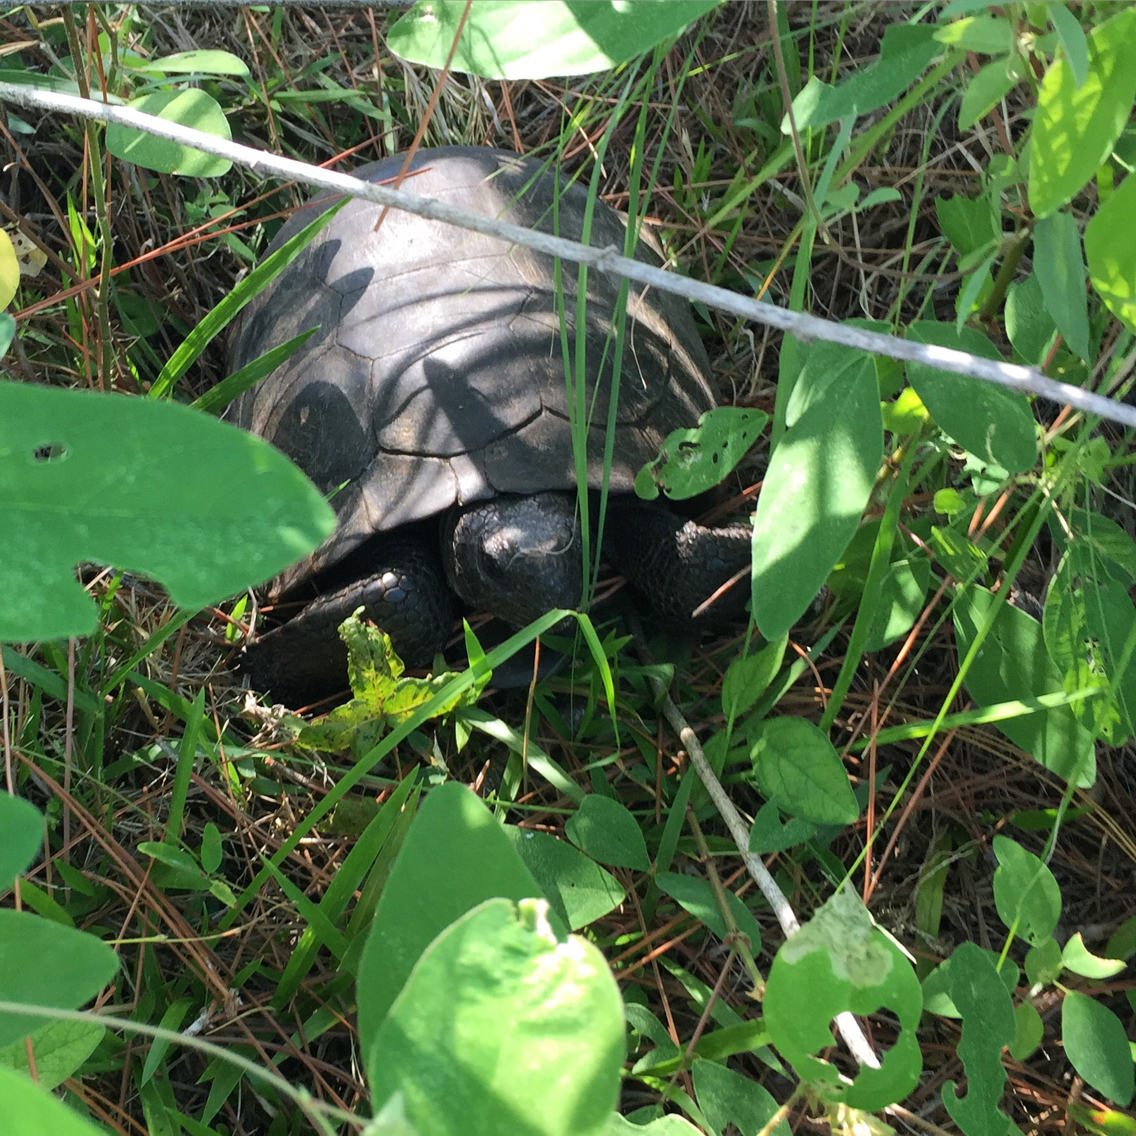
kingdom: Animalia
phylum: Chordata
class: Testudines
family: Testudinidae
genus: Gopherus
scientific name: Gopherus polyphemus
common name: Florida gopher tortoise
